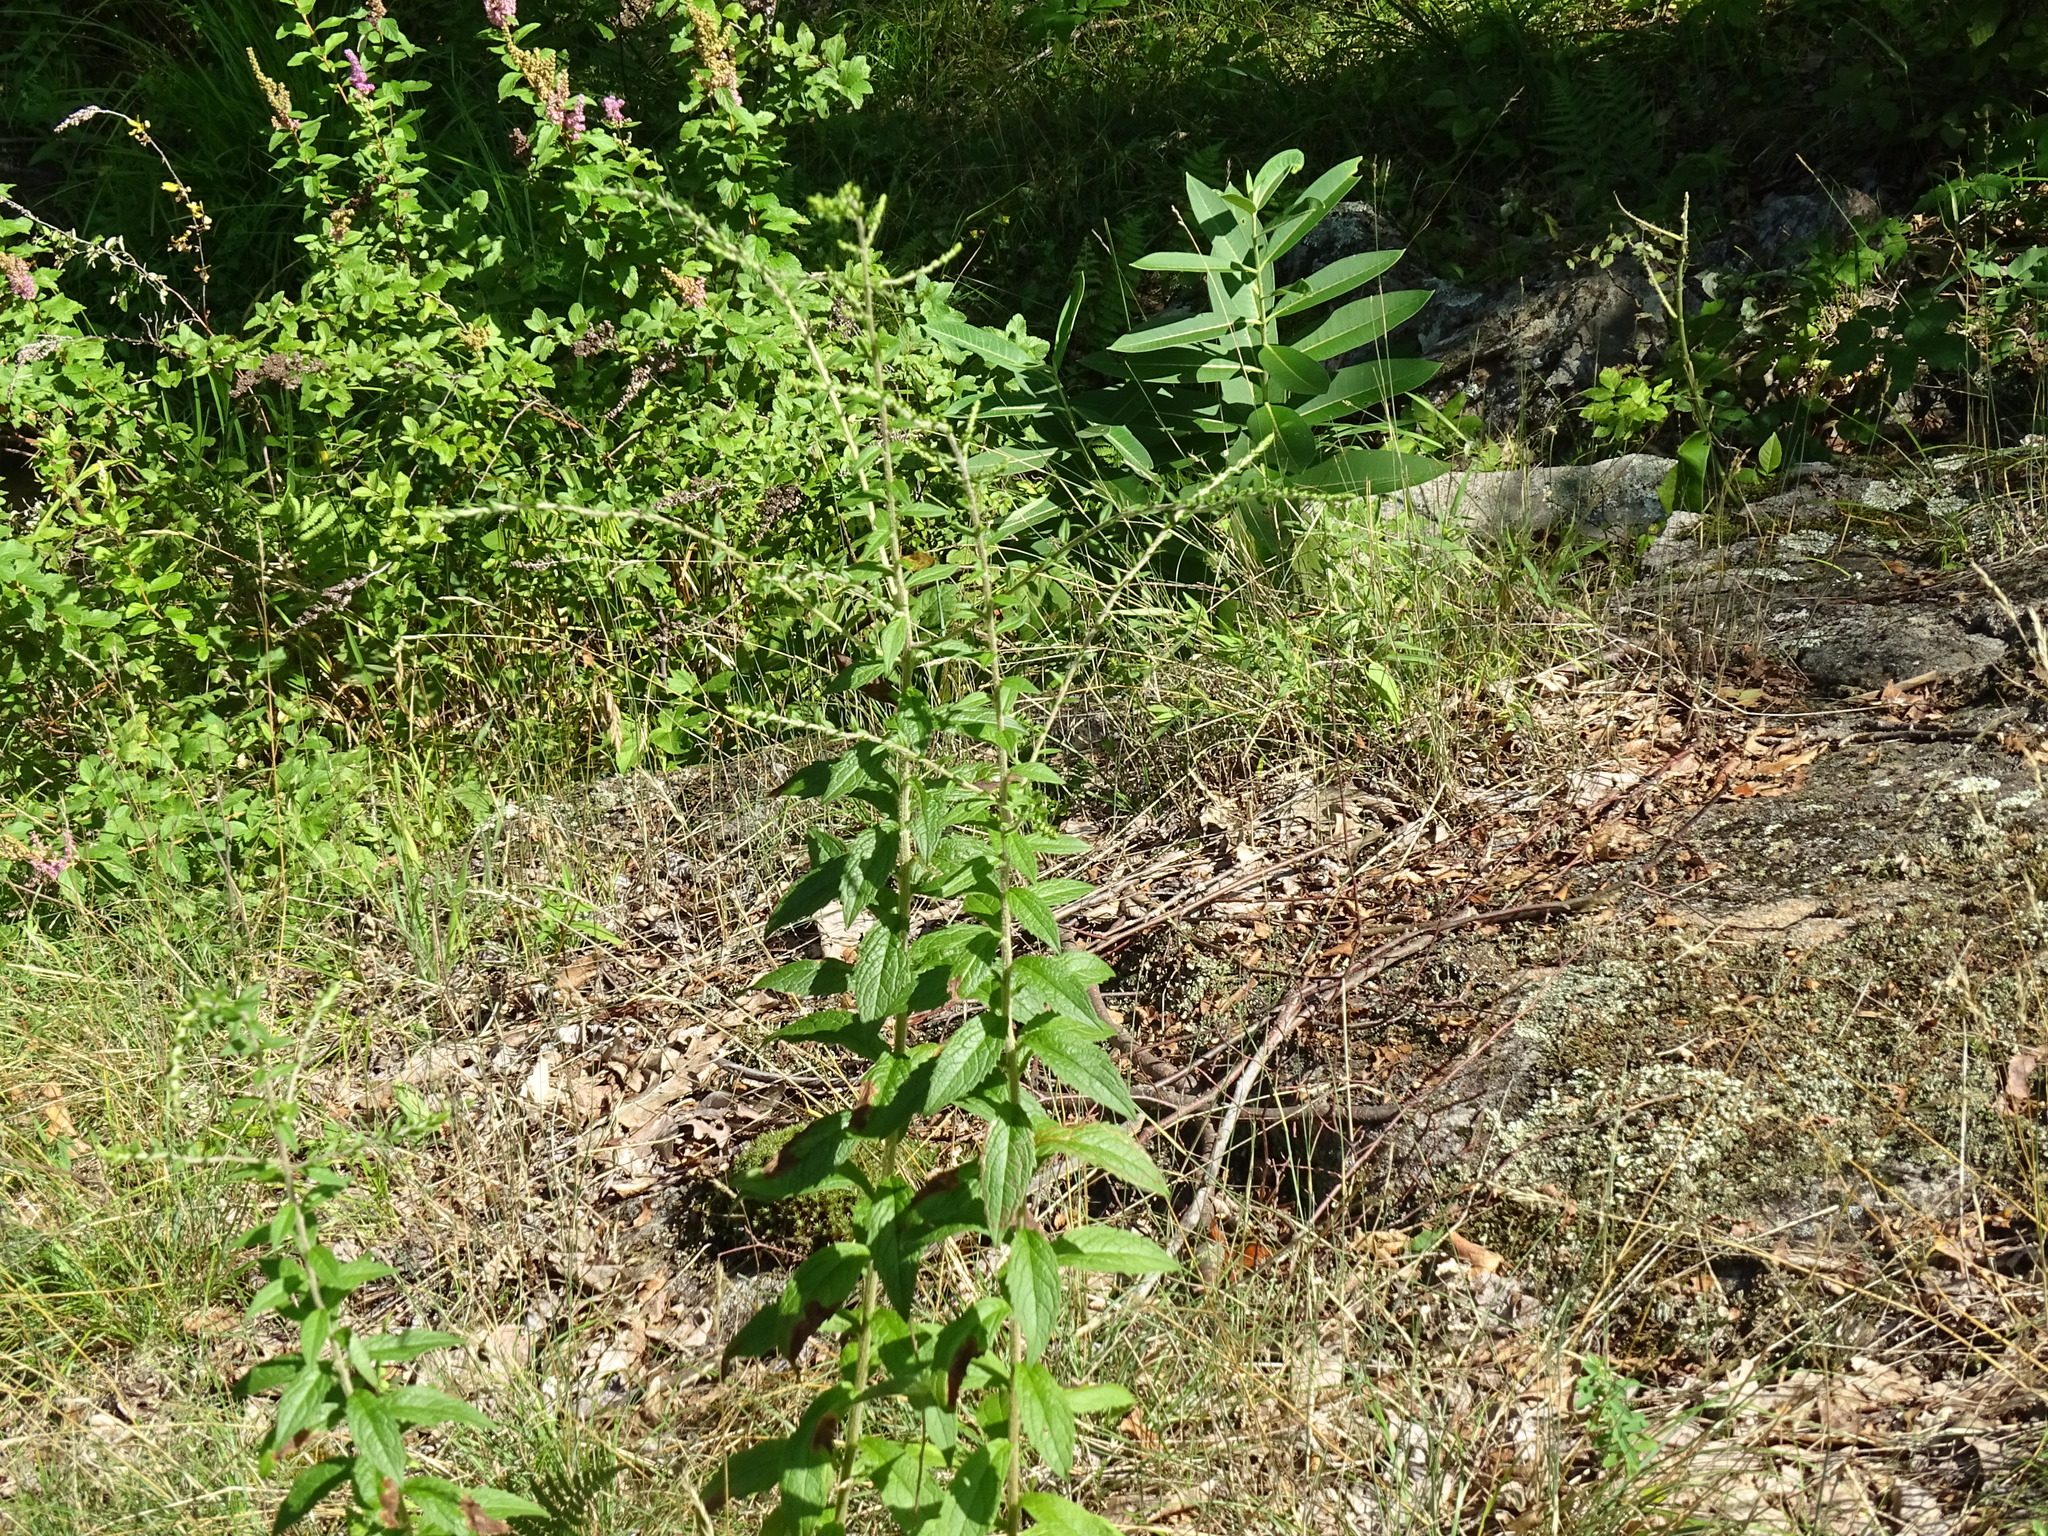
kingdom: Plantae
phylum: Tracheophyta
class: Magnoliopsida
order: Asterales
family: Asteraceae
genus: Solidago
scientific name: Solidago rugosa
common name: Rough-stemmed goldenrod
